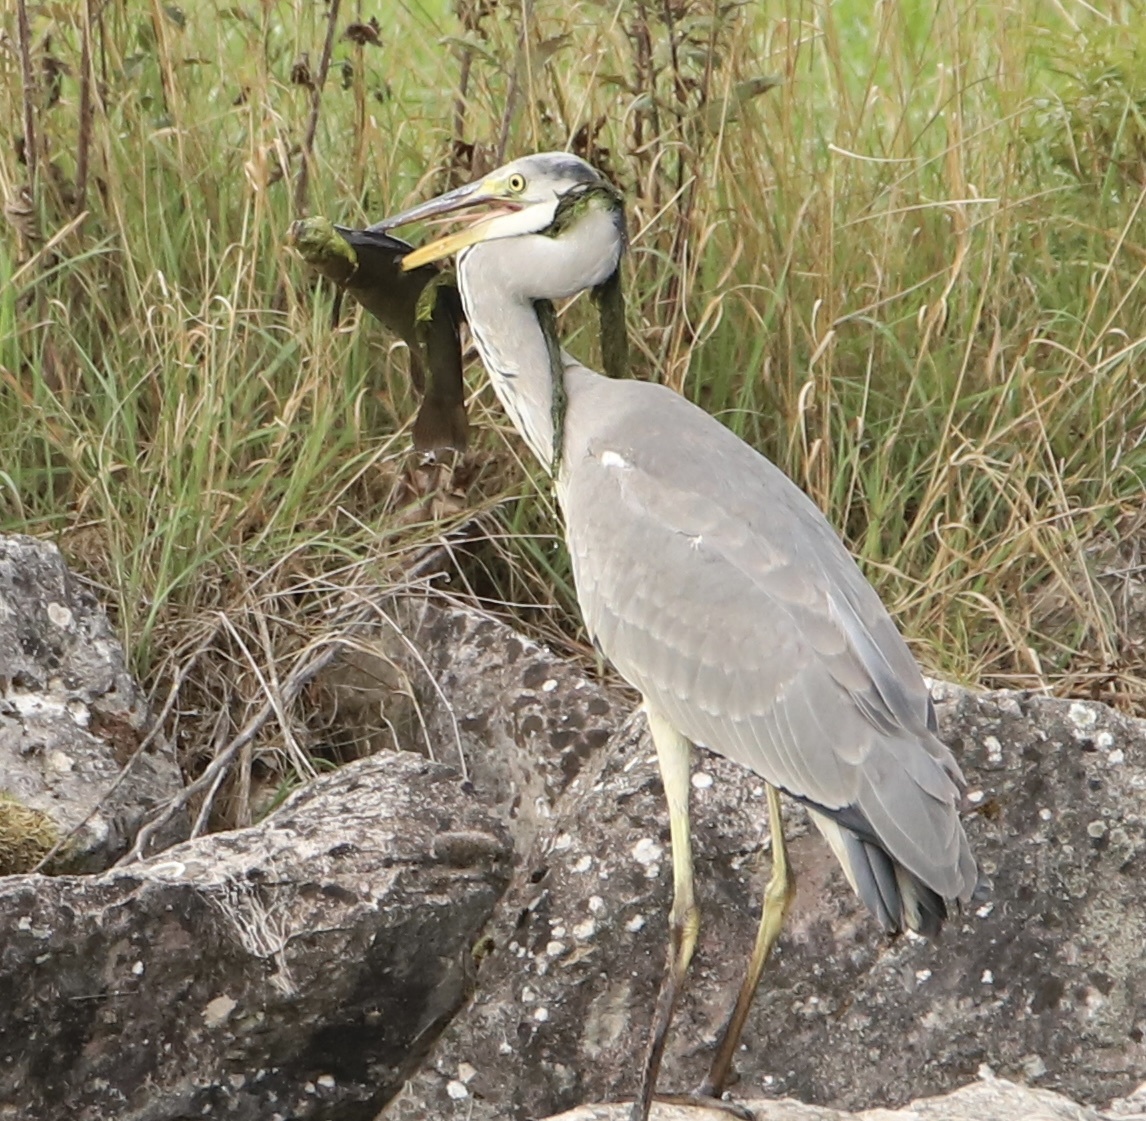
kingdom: Animalia
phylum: Chordata
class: Aves
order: Pelecaniformes
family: Ardeidae
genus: Ardea
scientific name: Ardea cinerea
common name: Grey heron
